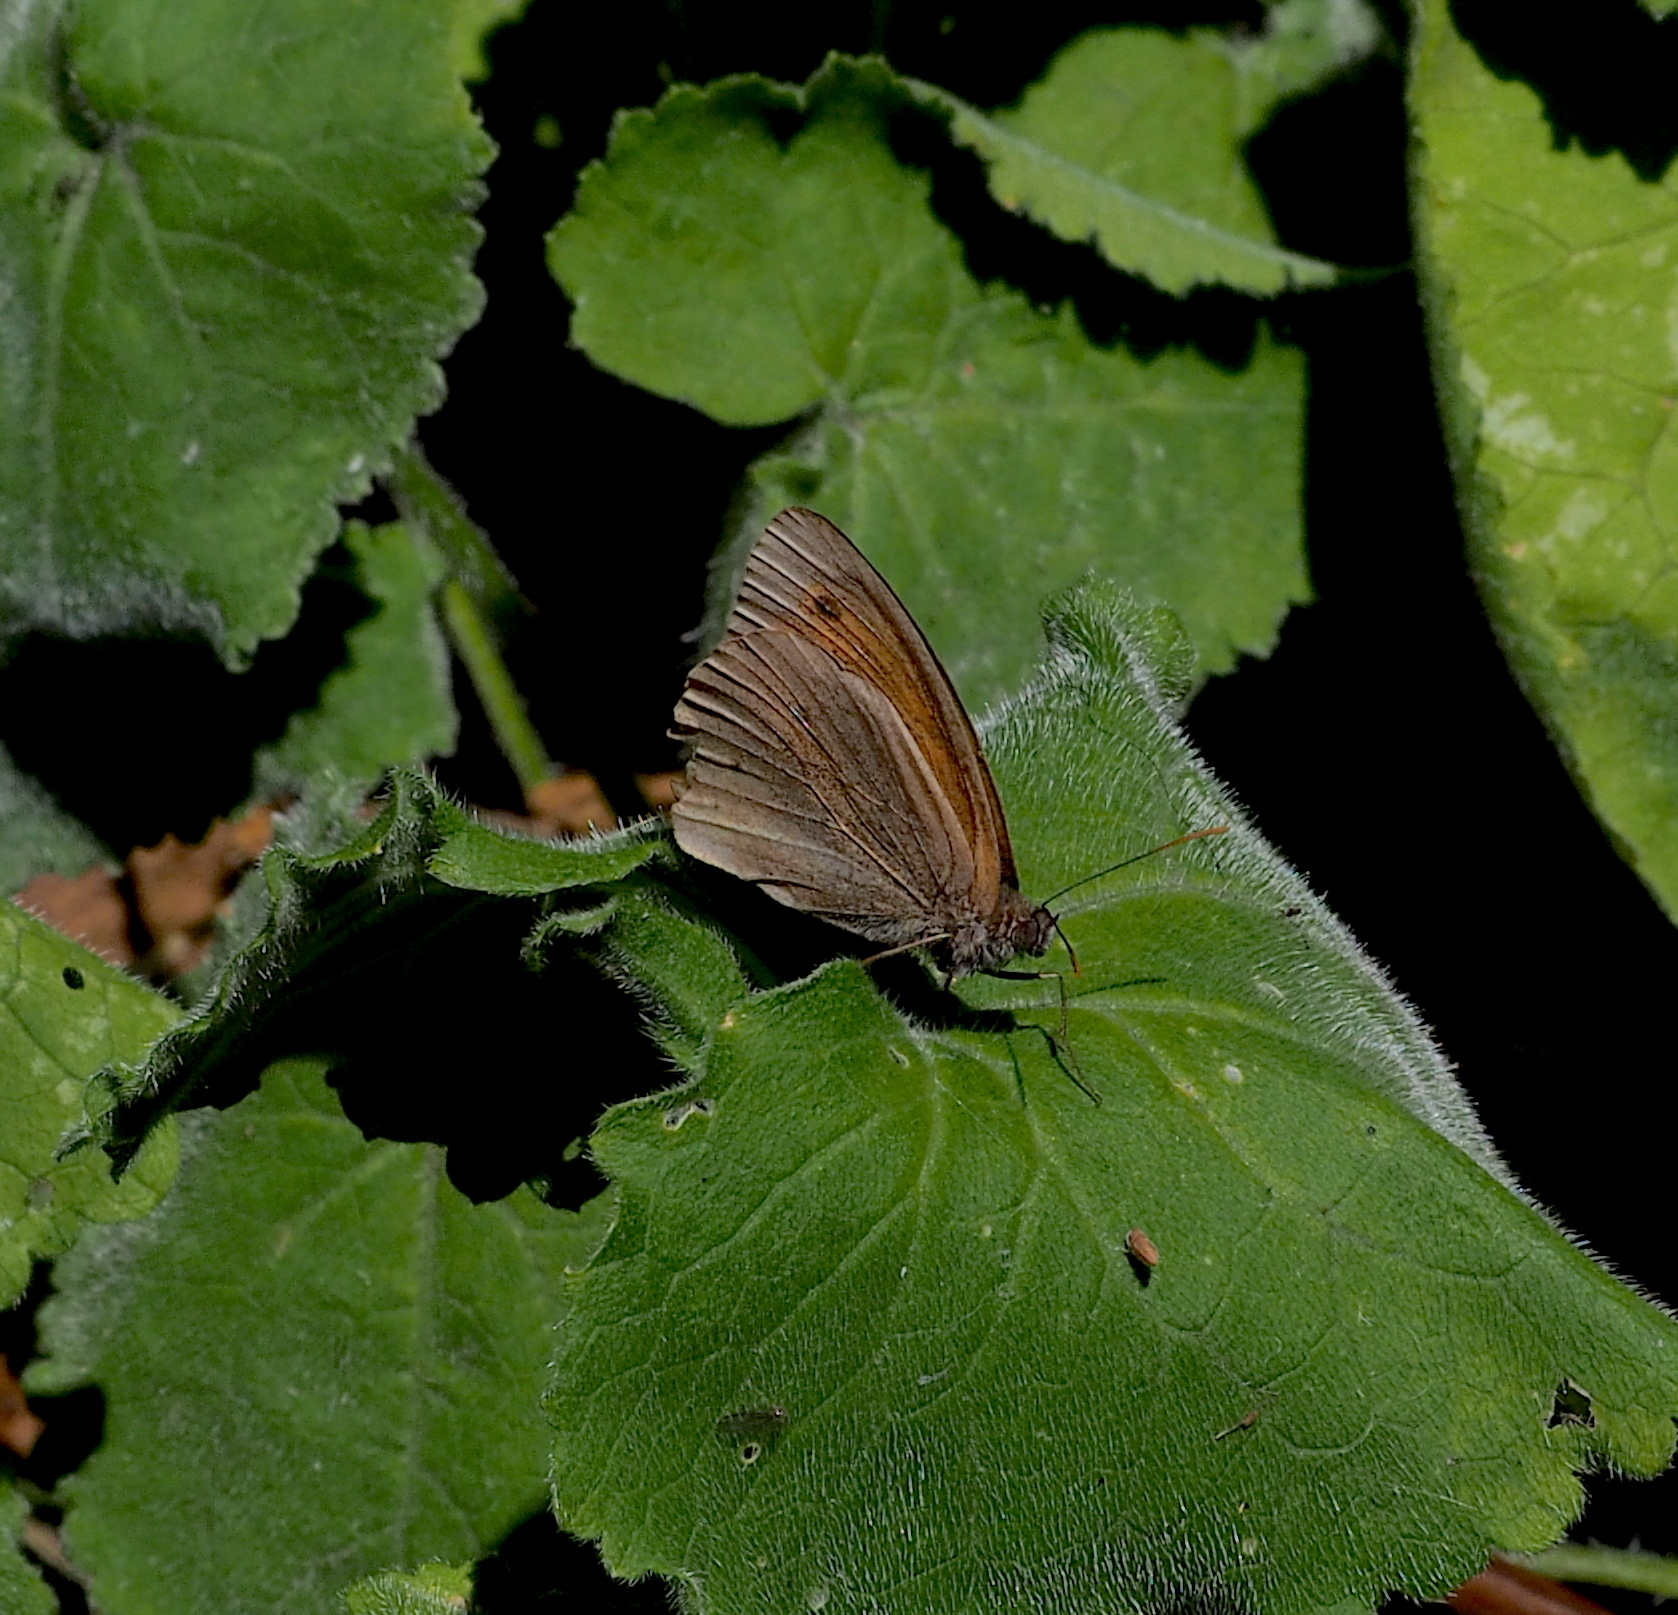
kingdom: Animalia
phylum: Arthropoda
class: Insecta
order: Lepidoptera
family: Nymphalidae
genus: Maniola
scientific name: Maniola jurtina
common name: Meadow brown
